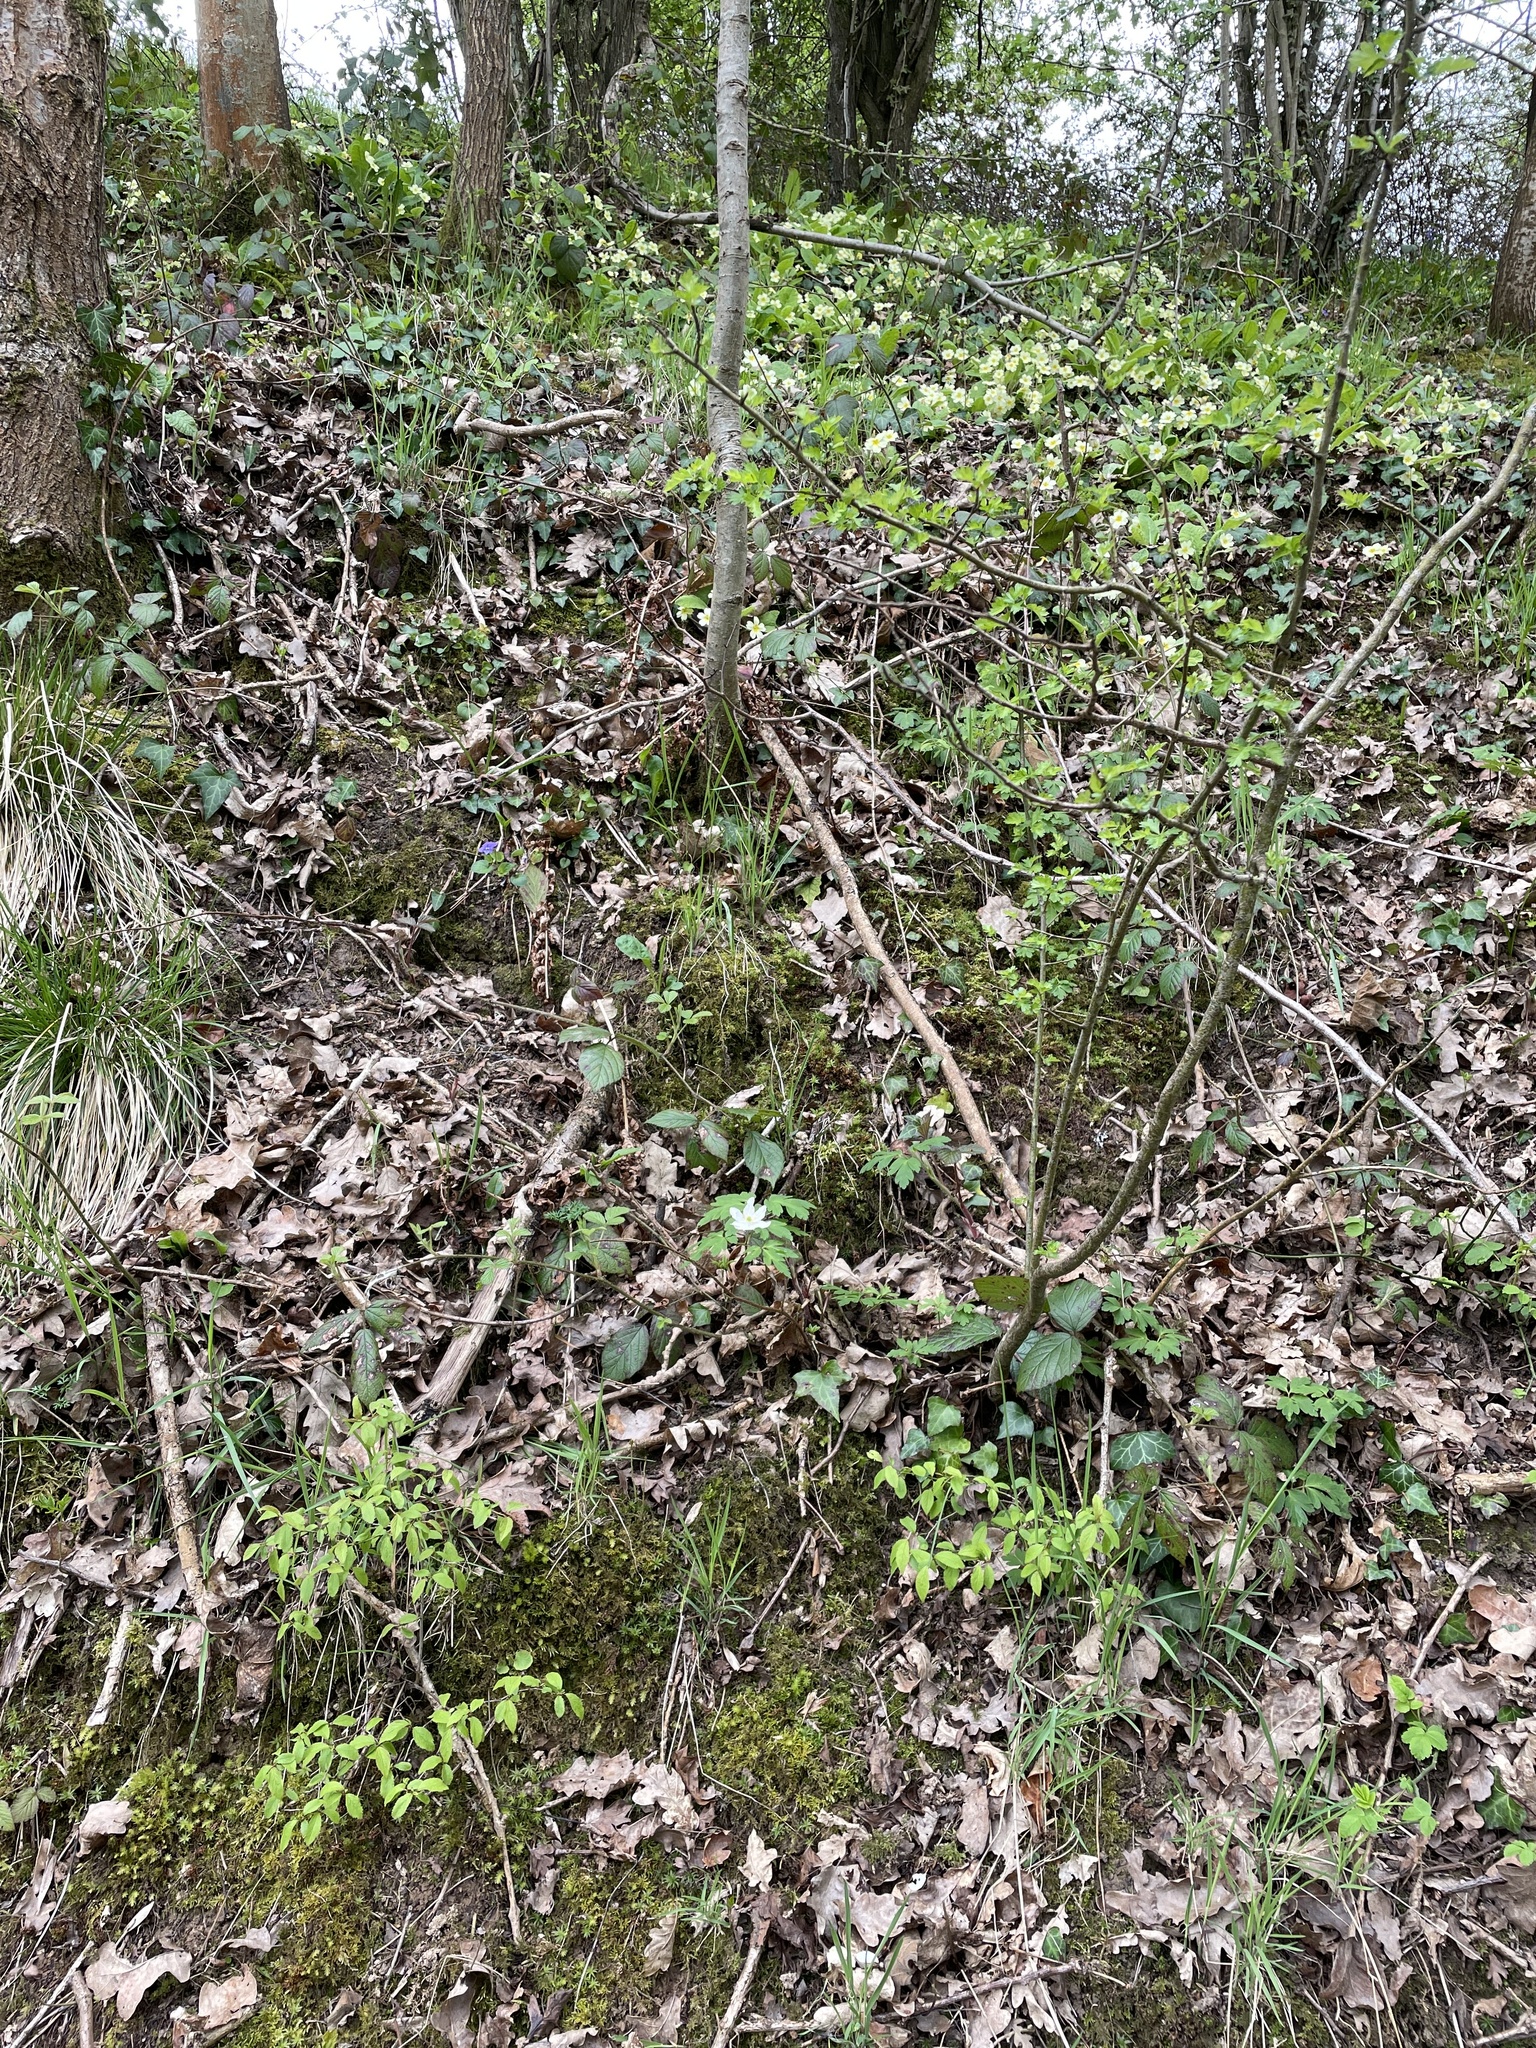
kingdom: Plantae
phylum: Tracheophyta
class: Magnoliopsida
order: Ranunculales
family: Ranunculaceae
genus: Anemone
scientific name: Anemone nemorosa
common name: Wood anemone
